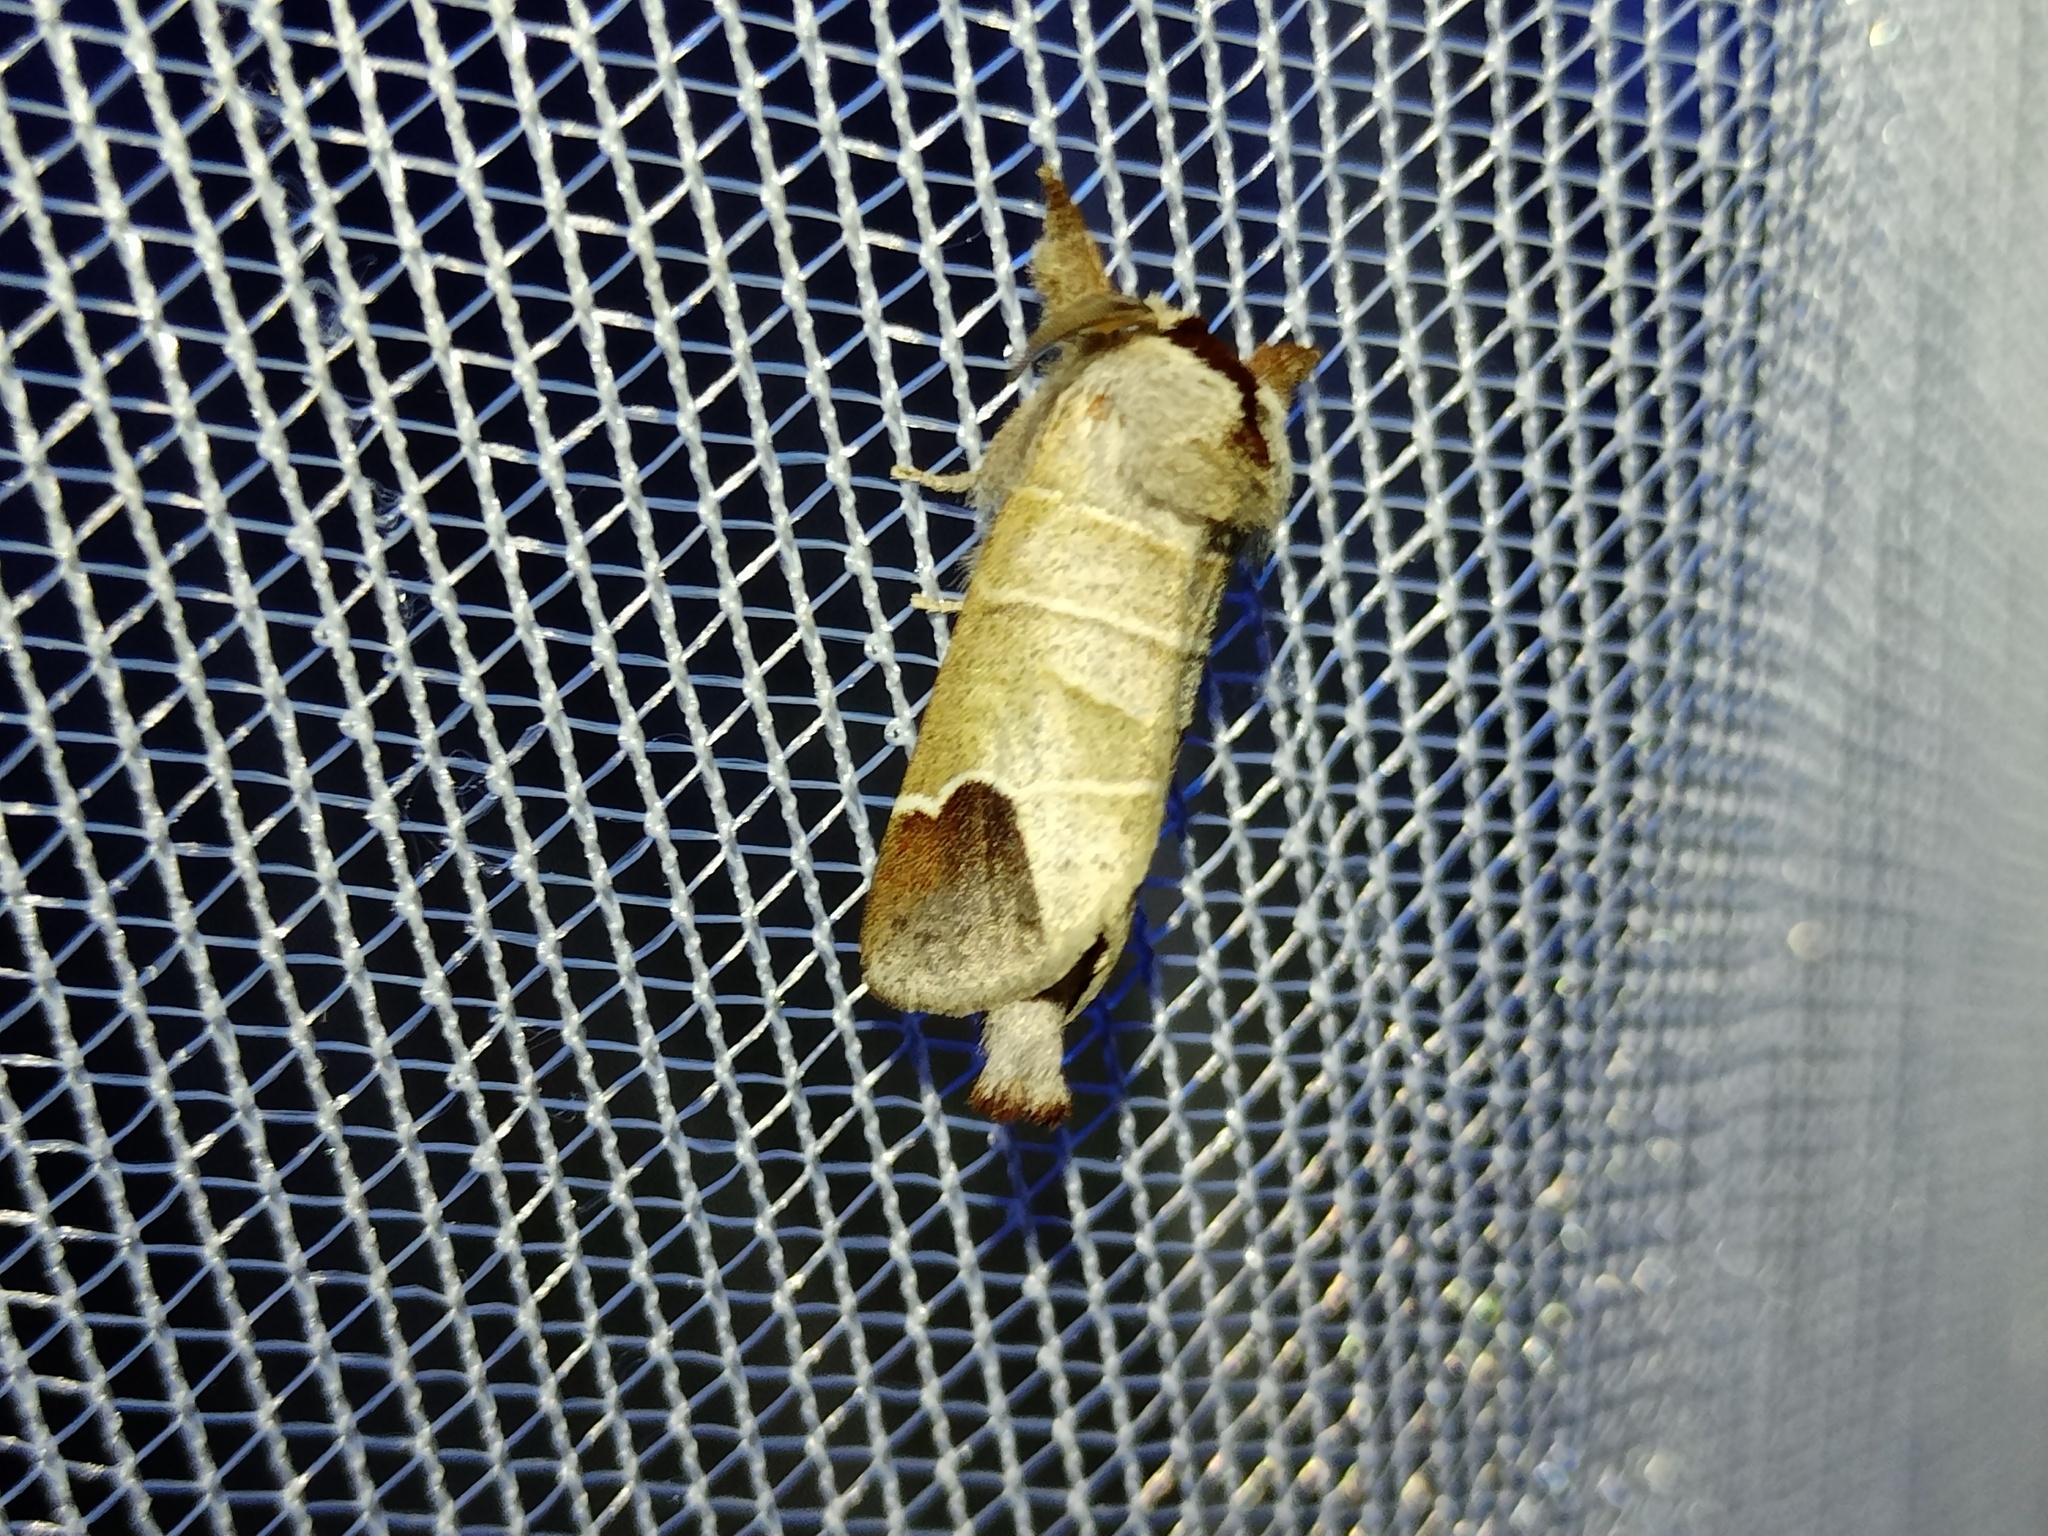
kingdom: Animalia
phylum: Arthropoda
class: Insecta
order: Lepidoptera
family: Notodontidae
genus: Clostera
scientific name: Clostera curtula
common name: Chocolate-tip
